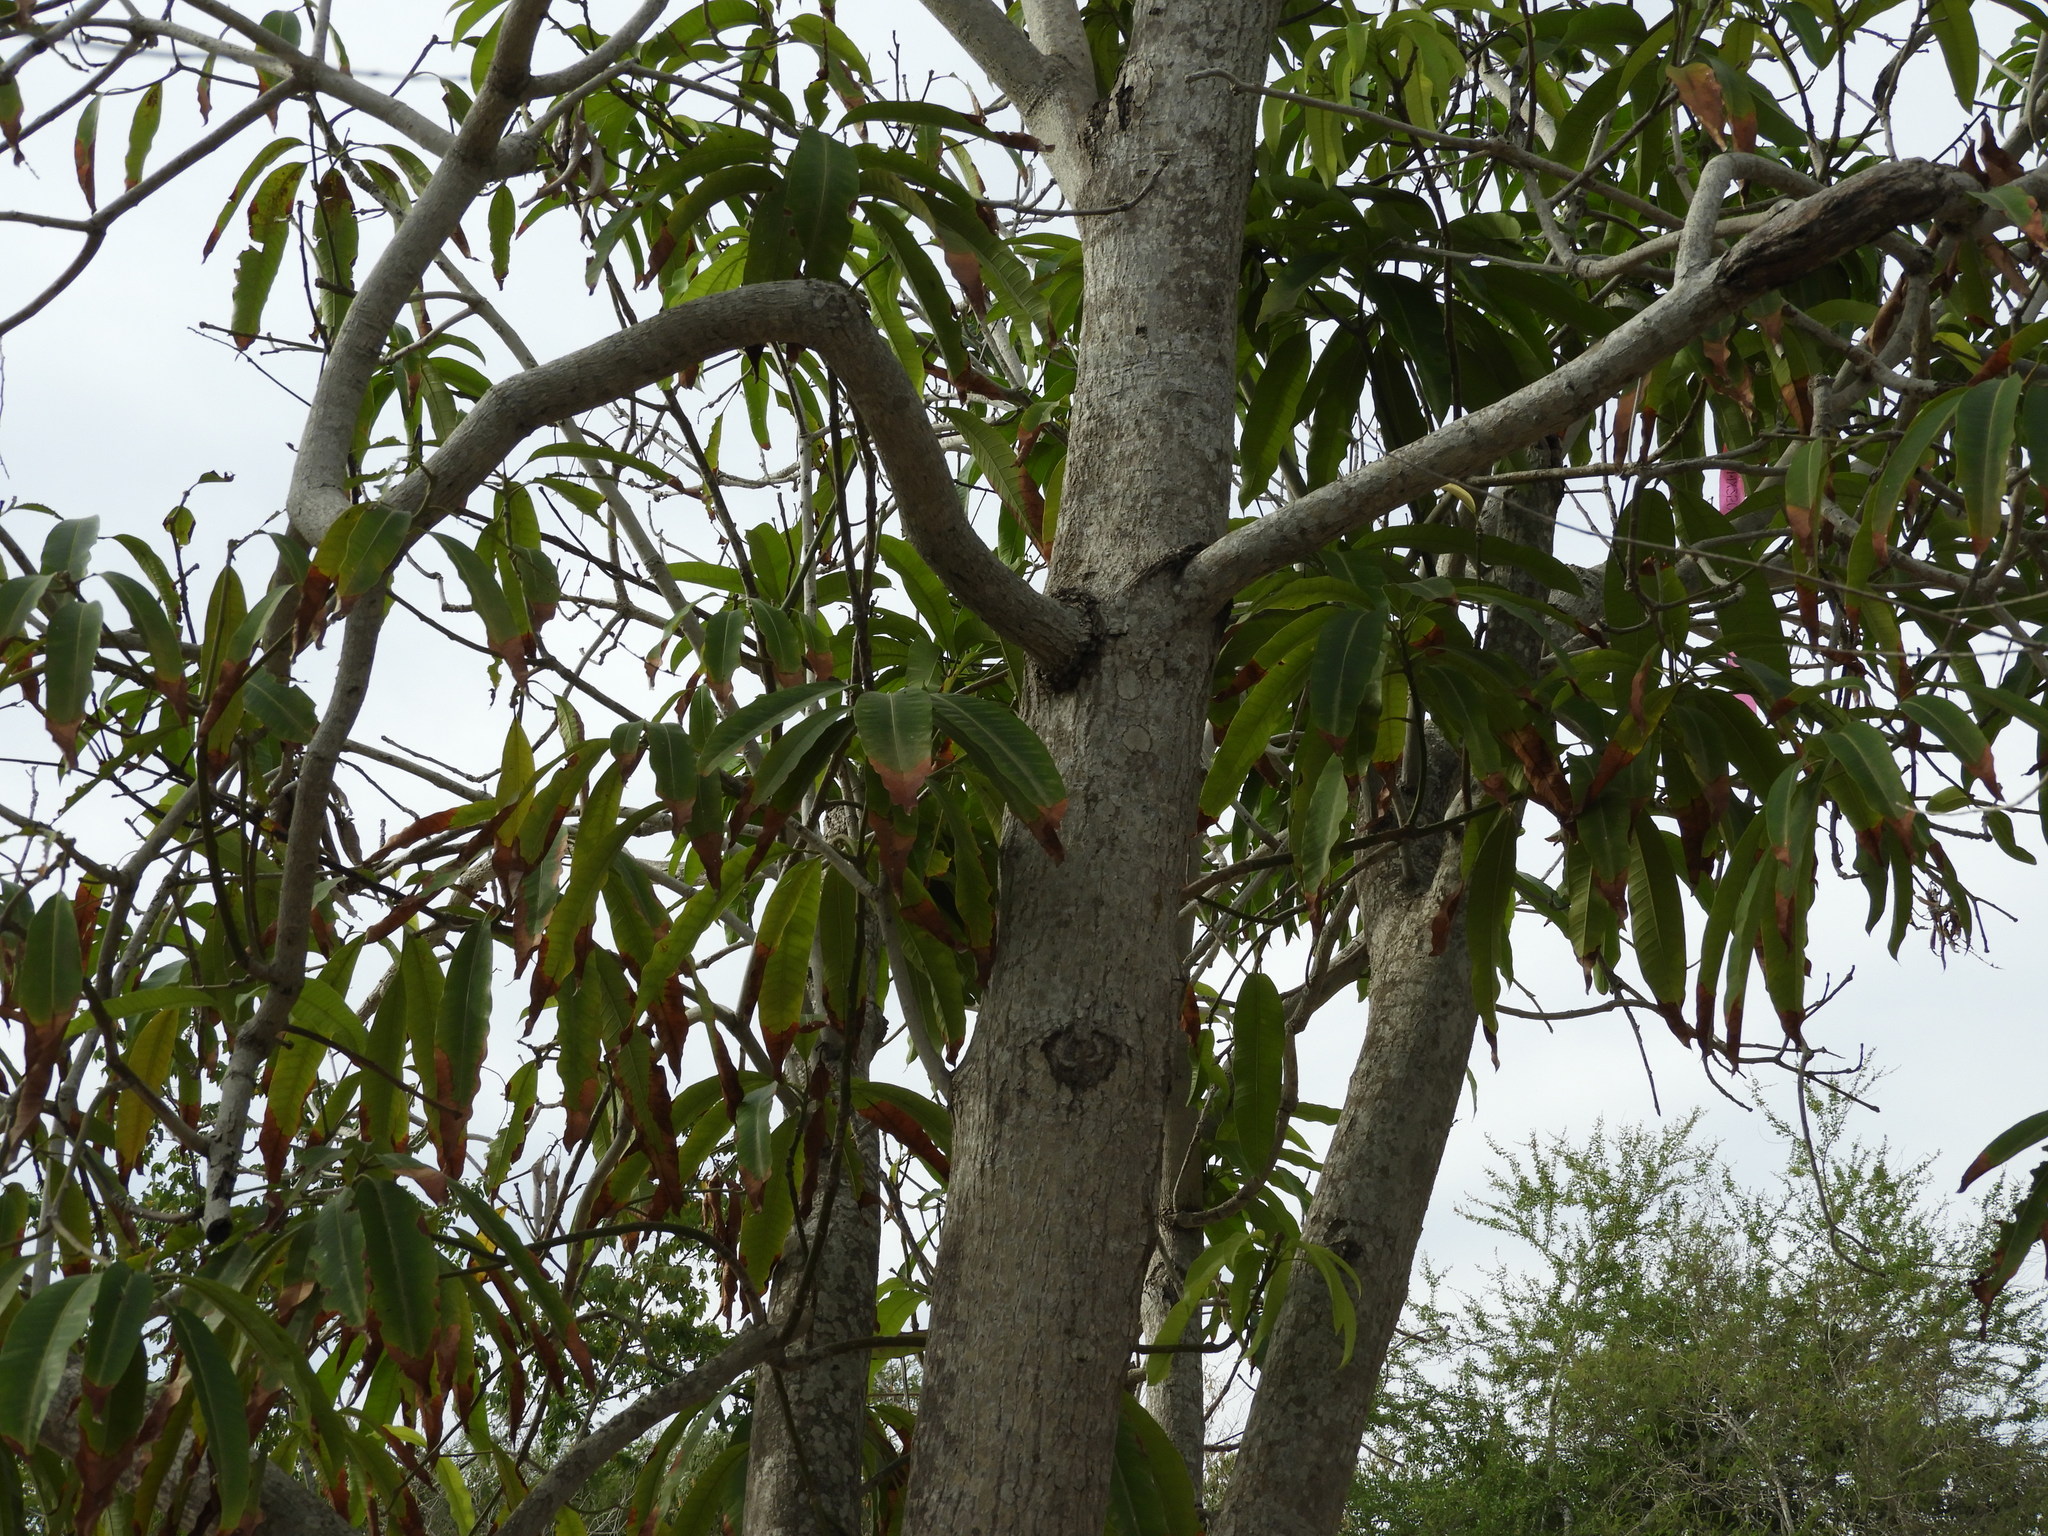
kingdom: Plantae
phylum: Tracheophyta
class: Magnoliopsida
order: Sapindales
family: Anacardiaceae
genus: Mangifera
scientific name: Mangifera indica
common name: Mango
